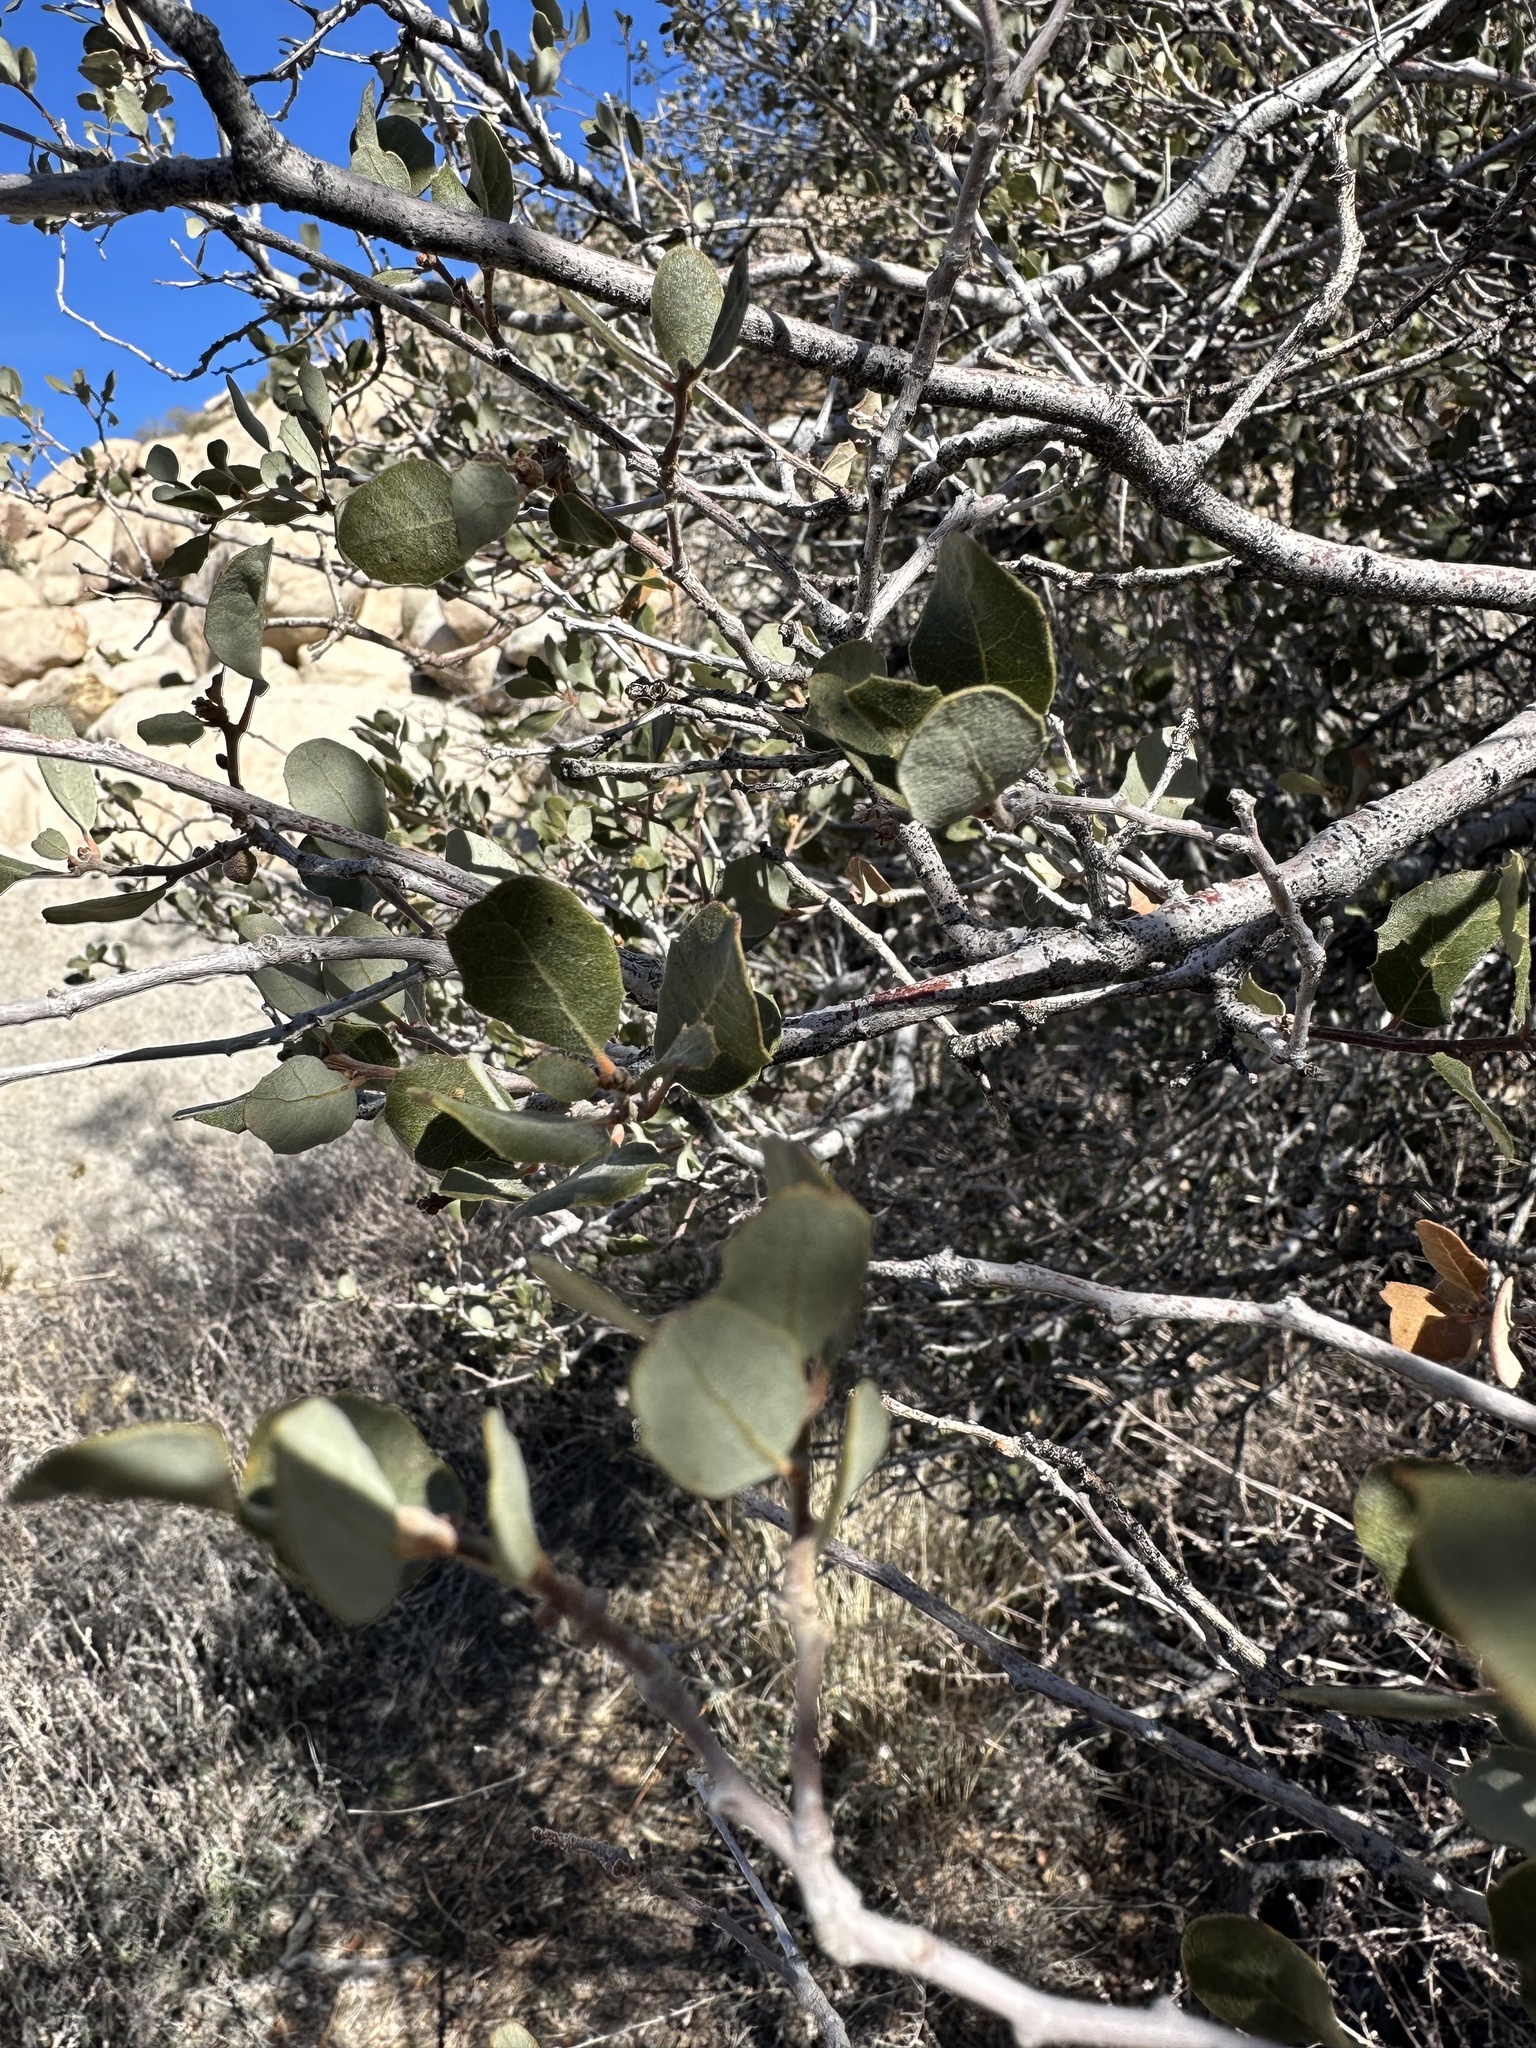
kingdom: Plantae
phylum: Tracheophyta
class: Magnoliopsida
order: Fagales
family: Fagaceae
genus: Quercus
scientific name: Quercus cornelius-mulleri
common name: Muller oak
